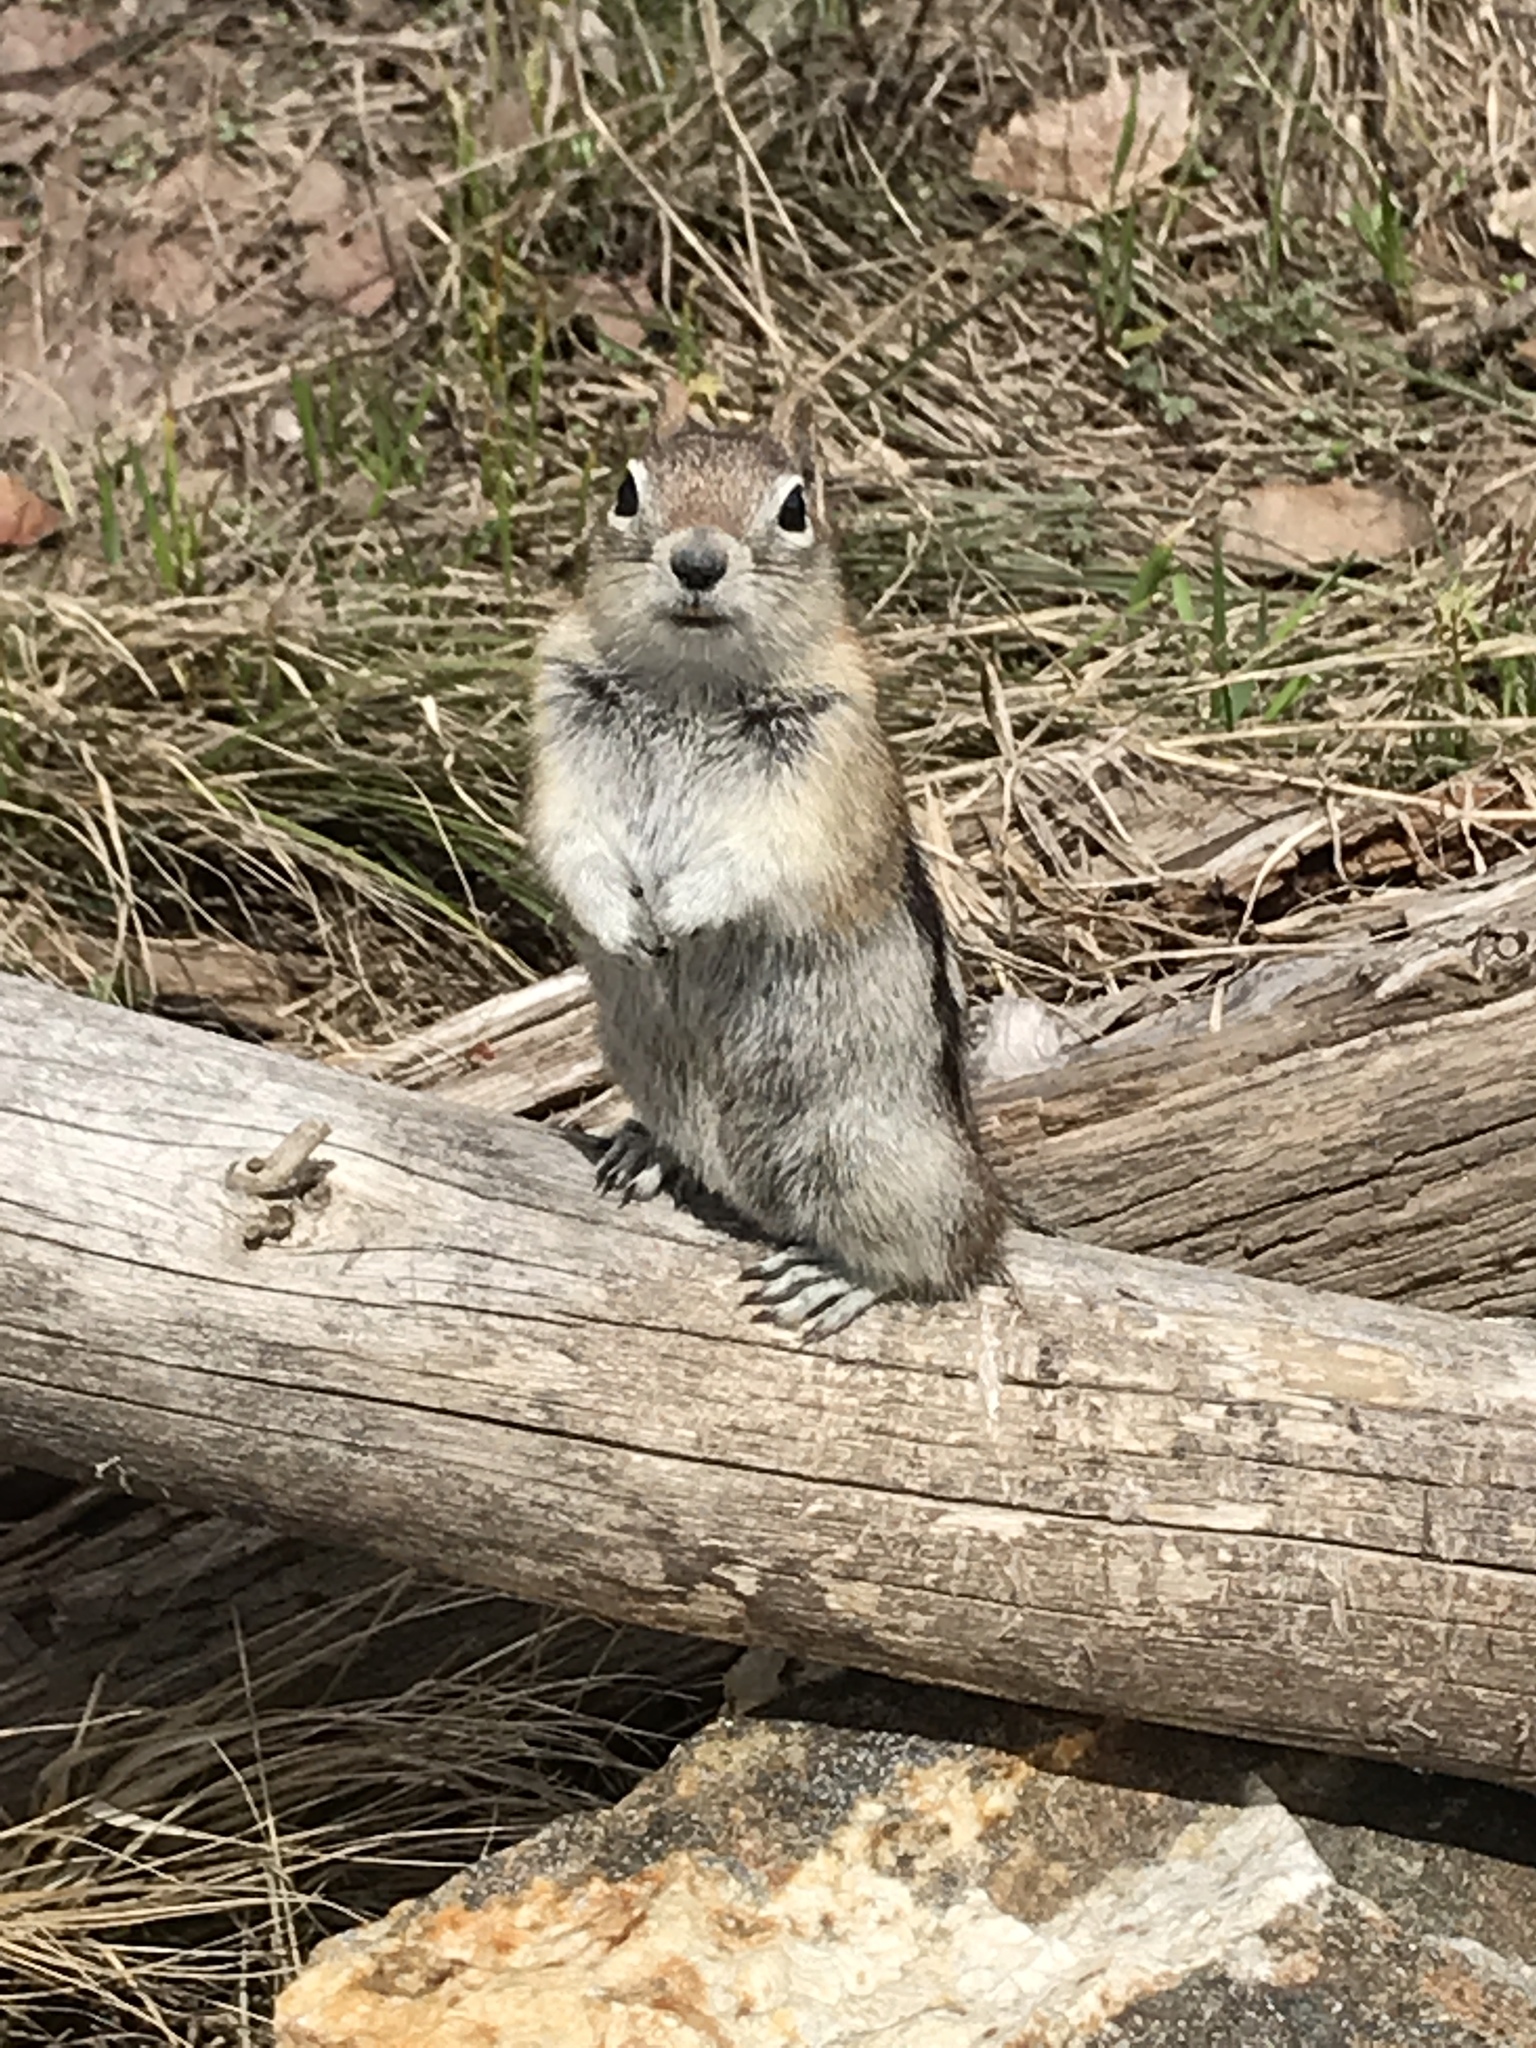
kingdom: Animalia
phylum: Chordata
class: Mammalia
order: Rodentia
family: Sciuridae
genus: Callospermophilus
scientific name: Callospermophilus lateralis
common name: Golden-mantled ground squirrel
